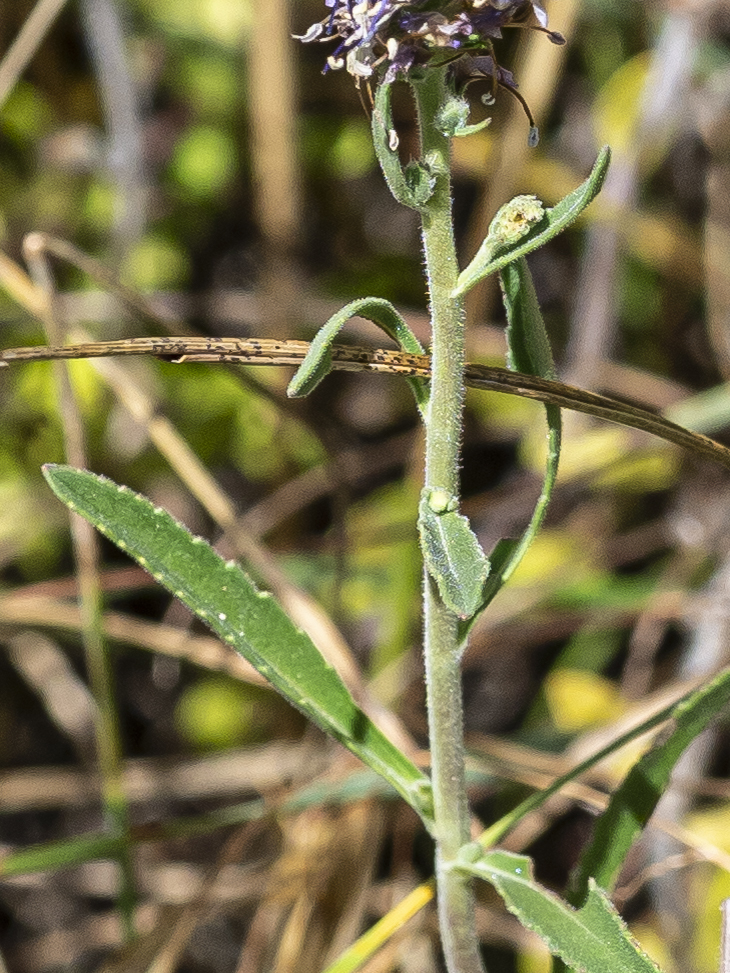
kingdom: Plantae
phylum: Tracheophyta
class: Magnoliopsida
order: Lamiales
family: Plantaginaceae
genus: Veronica
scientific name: Veronica spicata
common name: Spiked speedwell
